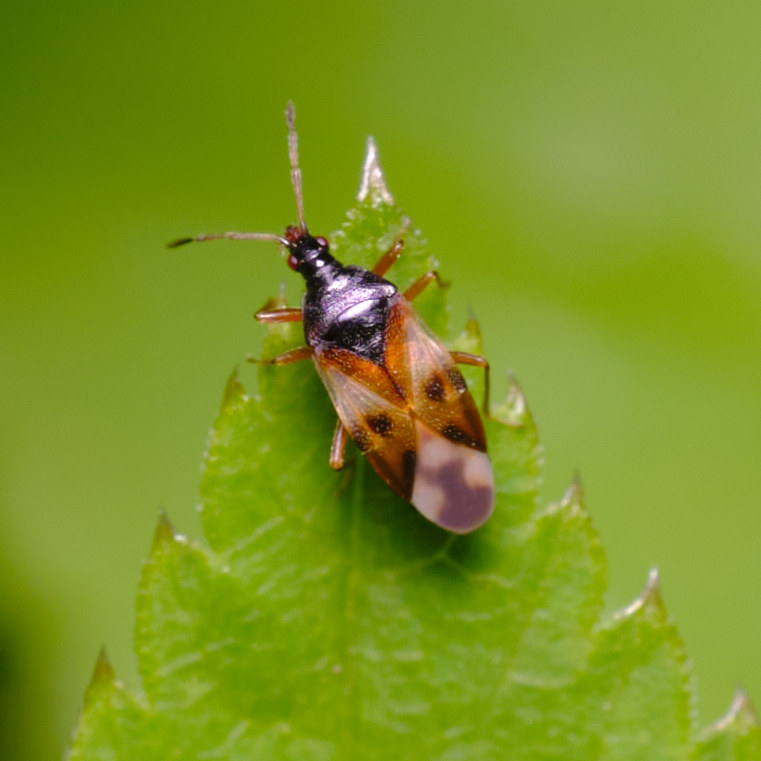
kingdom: Animalia
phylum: Arthropoda
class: Insecta
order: Hemiptera
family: Anthocoridae
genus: Anthocoris
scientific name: Anthocoris nemorum
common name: Minute pirate bug
